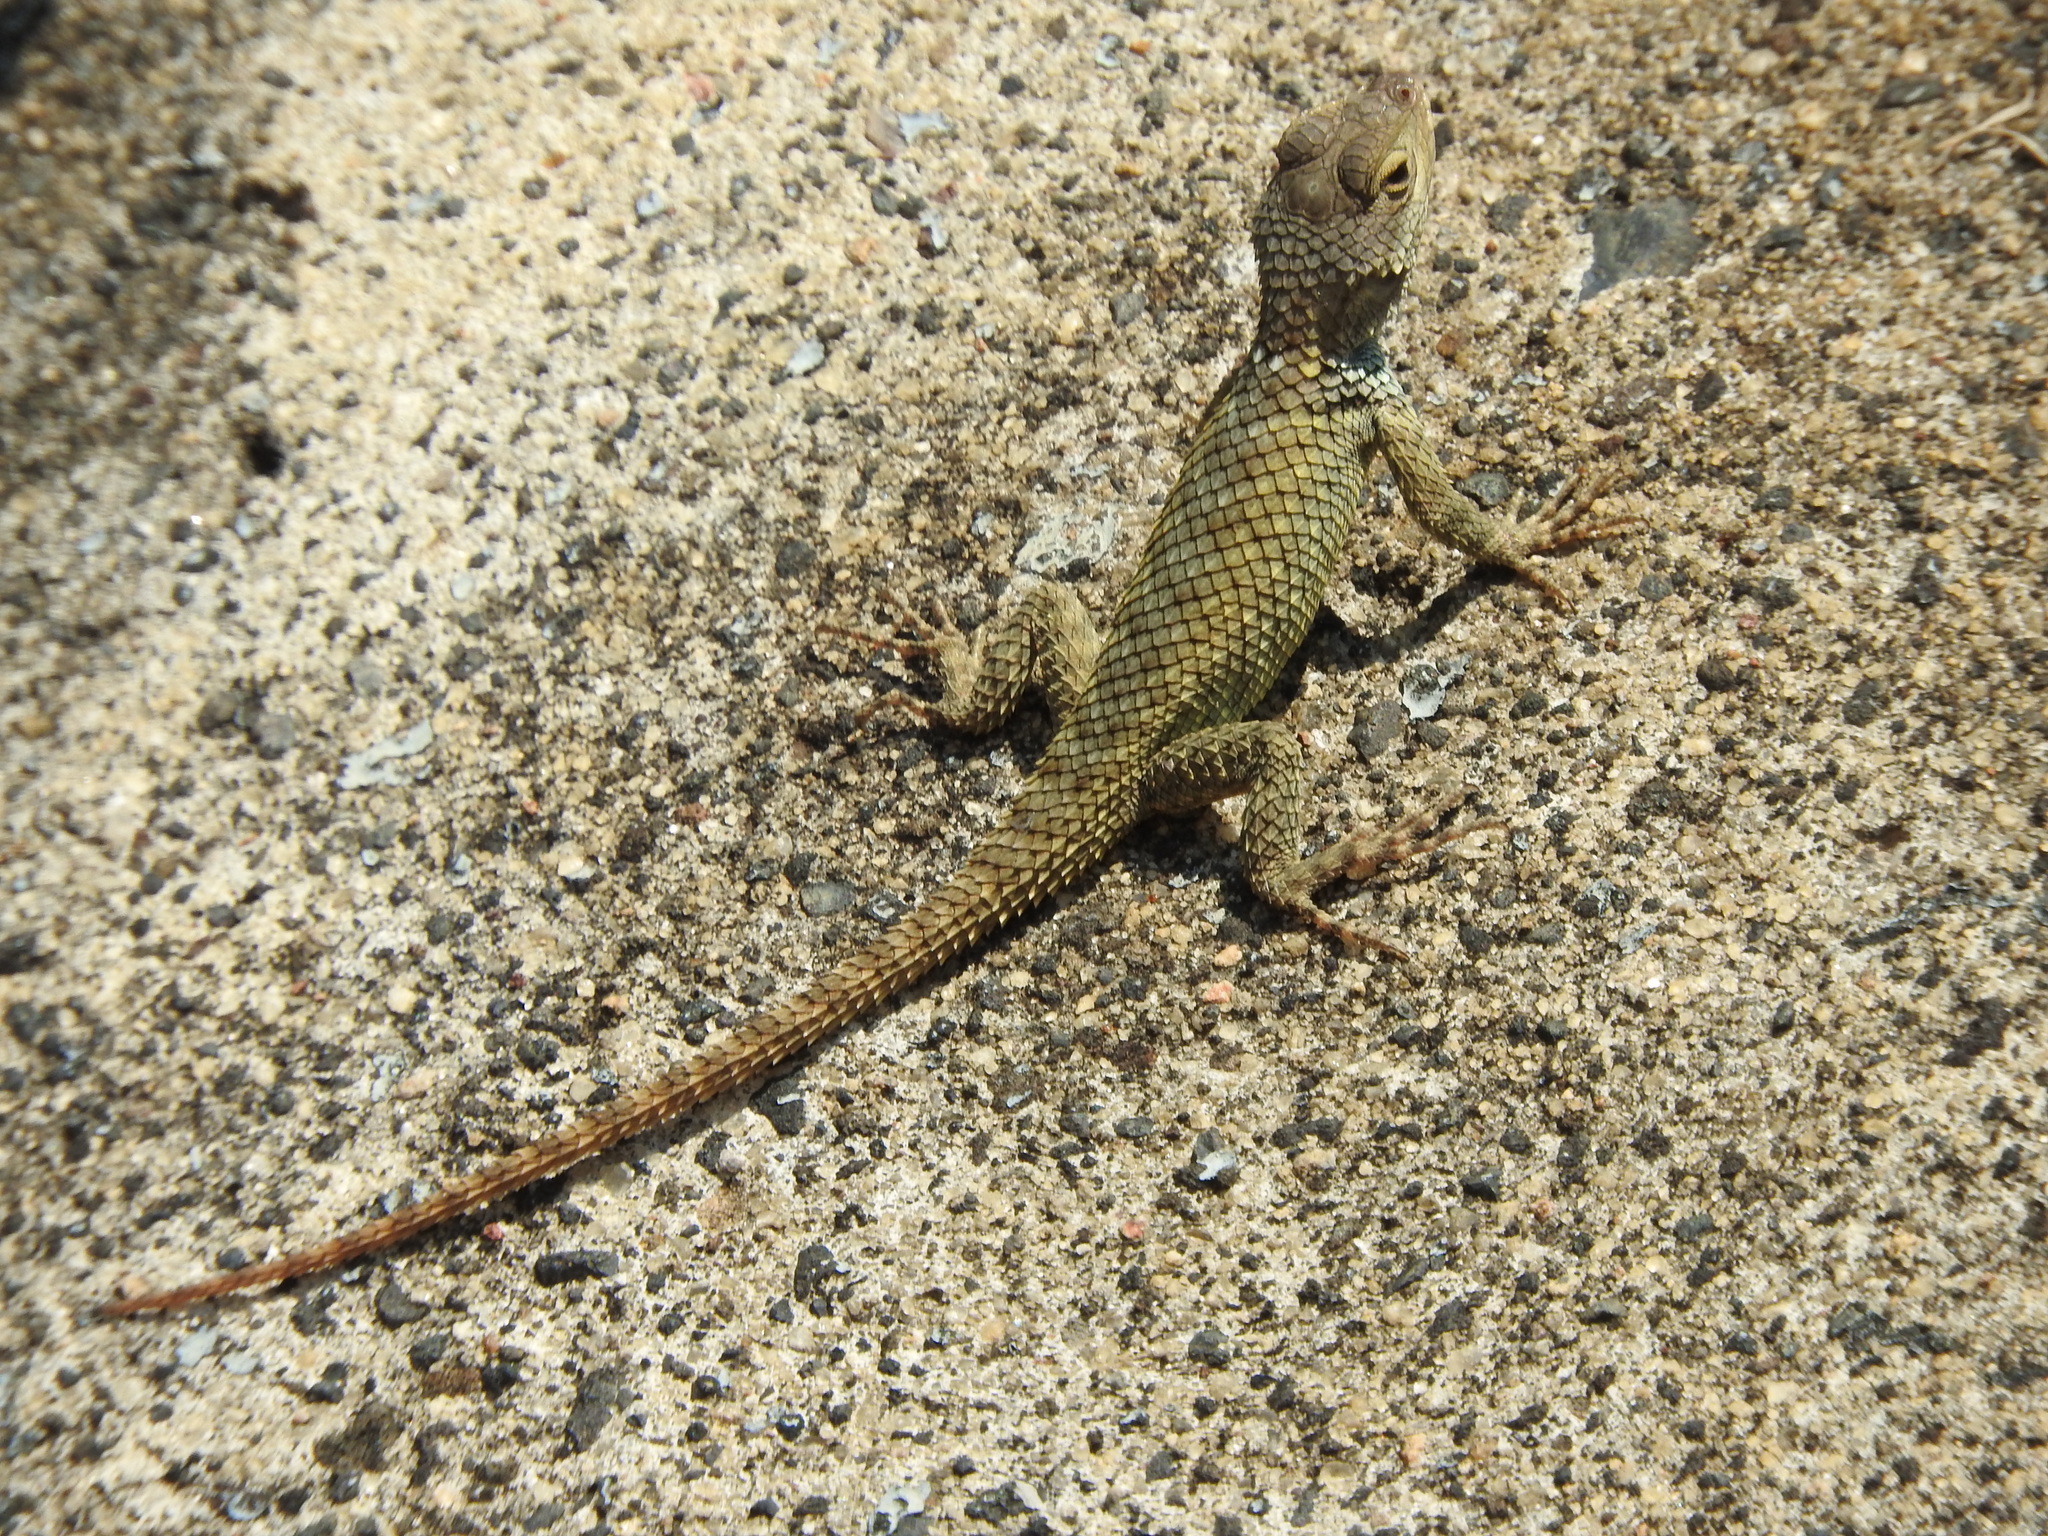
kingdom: Animalia
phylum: Chordata
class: Squamata
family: Phrynosomatidae
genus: Sceloporus
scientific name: Sceloporus torquatus
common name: Central plateau torquate lizard [melanogaster]
